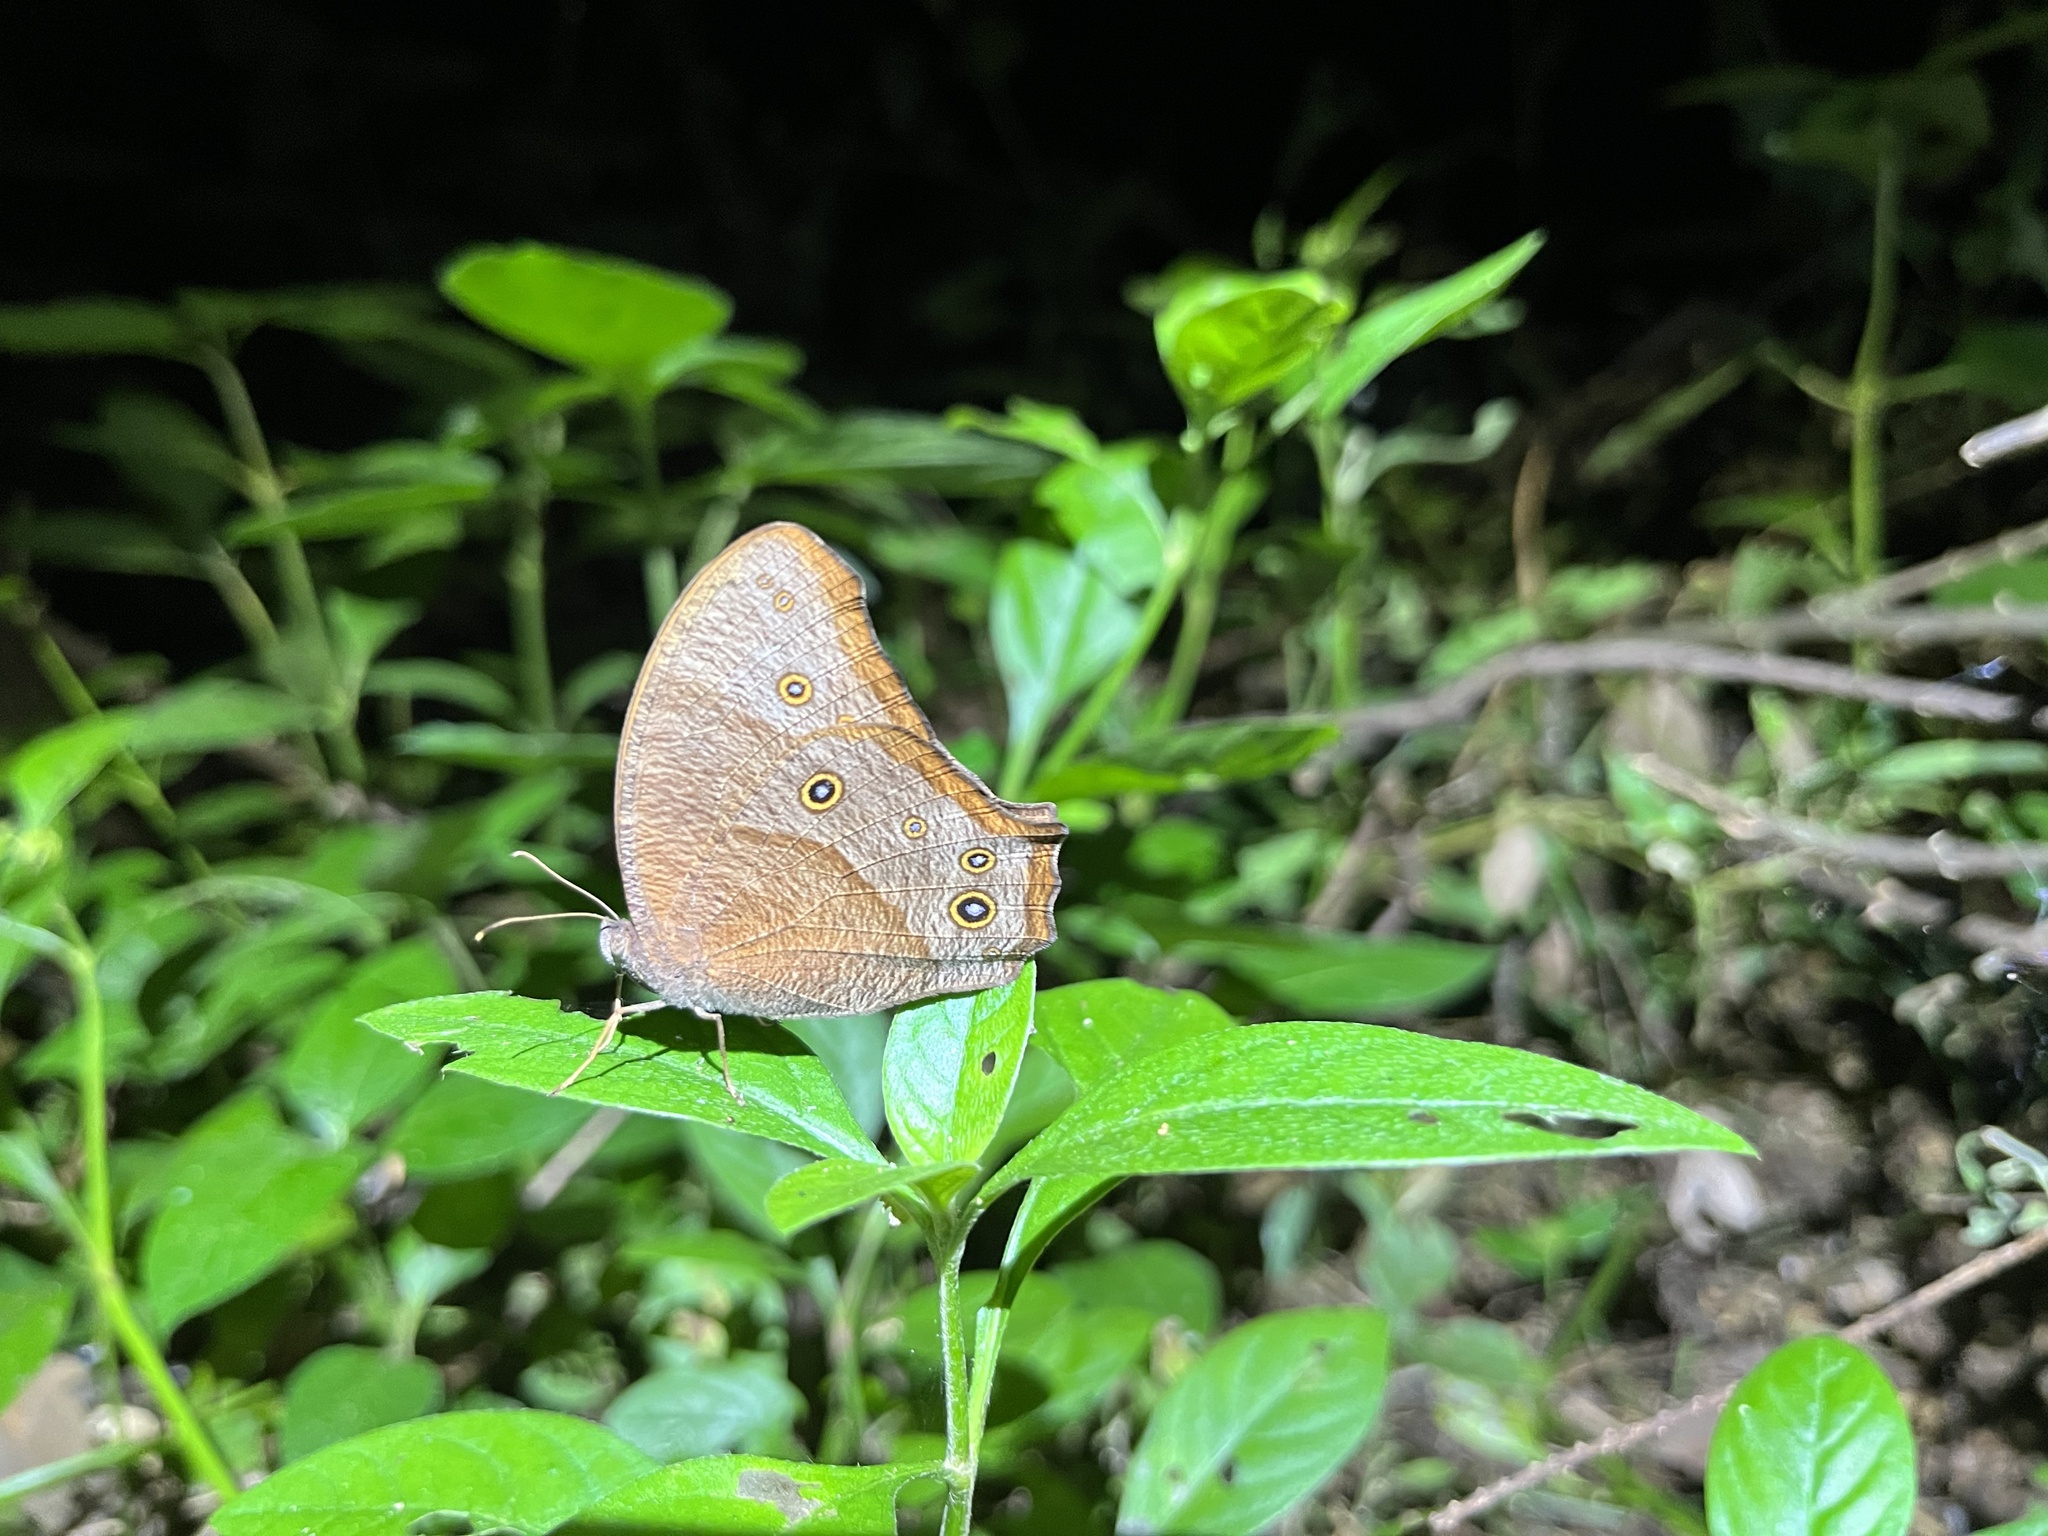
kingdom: Animalia
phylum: Arthropoda
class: Insecta
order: Lepidoptera
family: Nymphalidae
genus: Melanitis
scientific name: Melanitis leda
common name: Twilight brown
